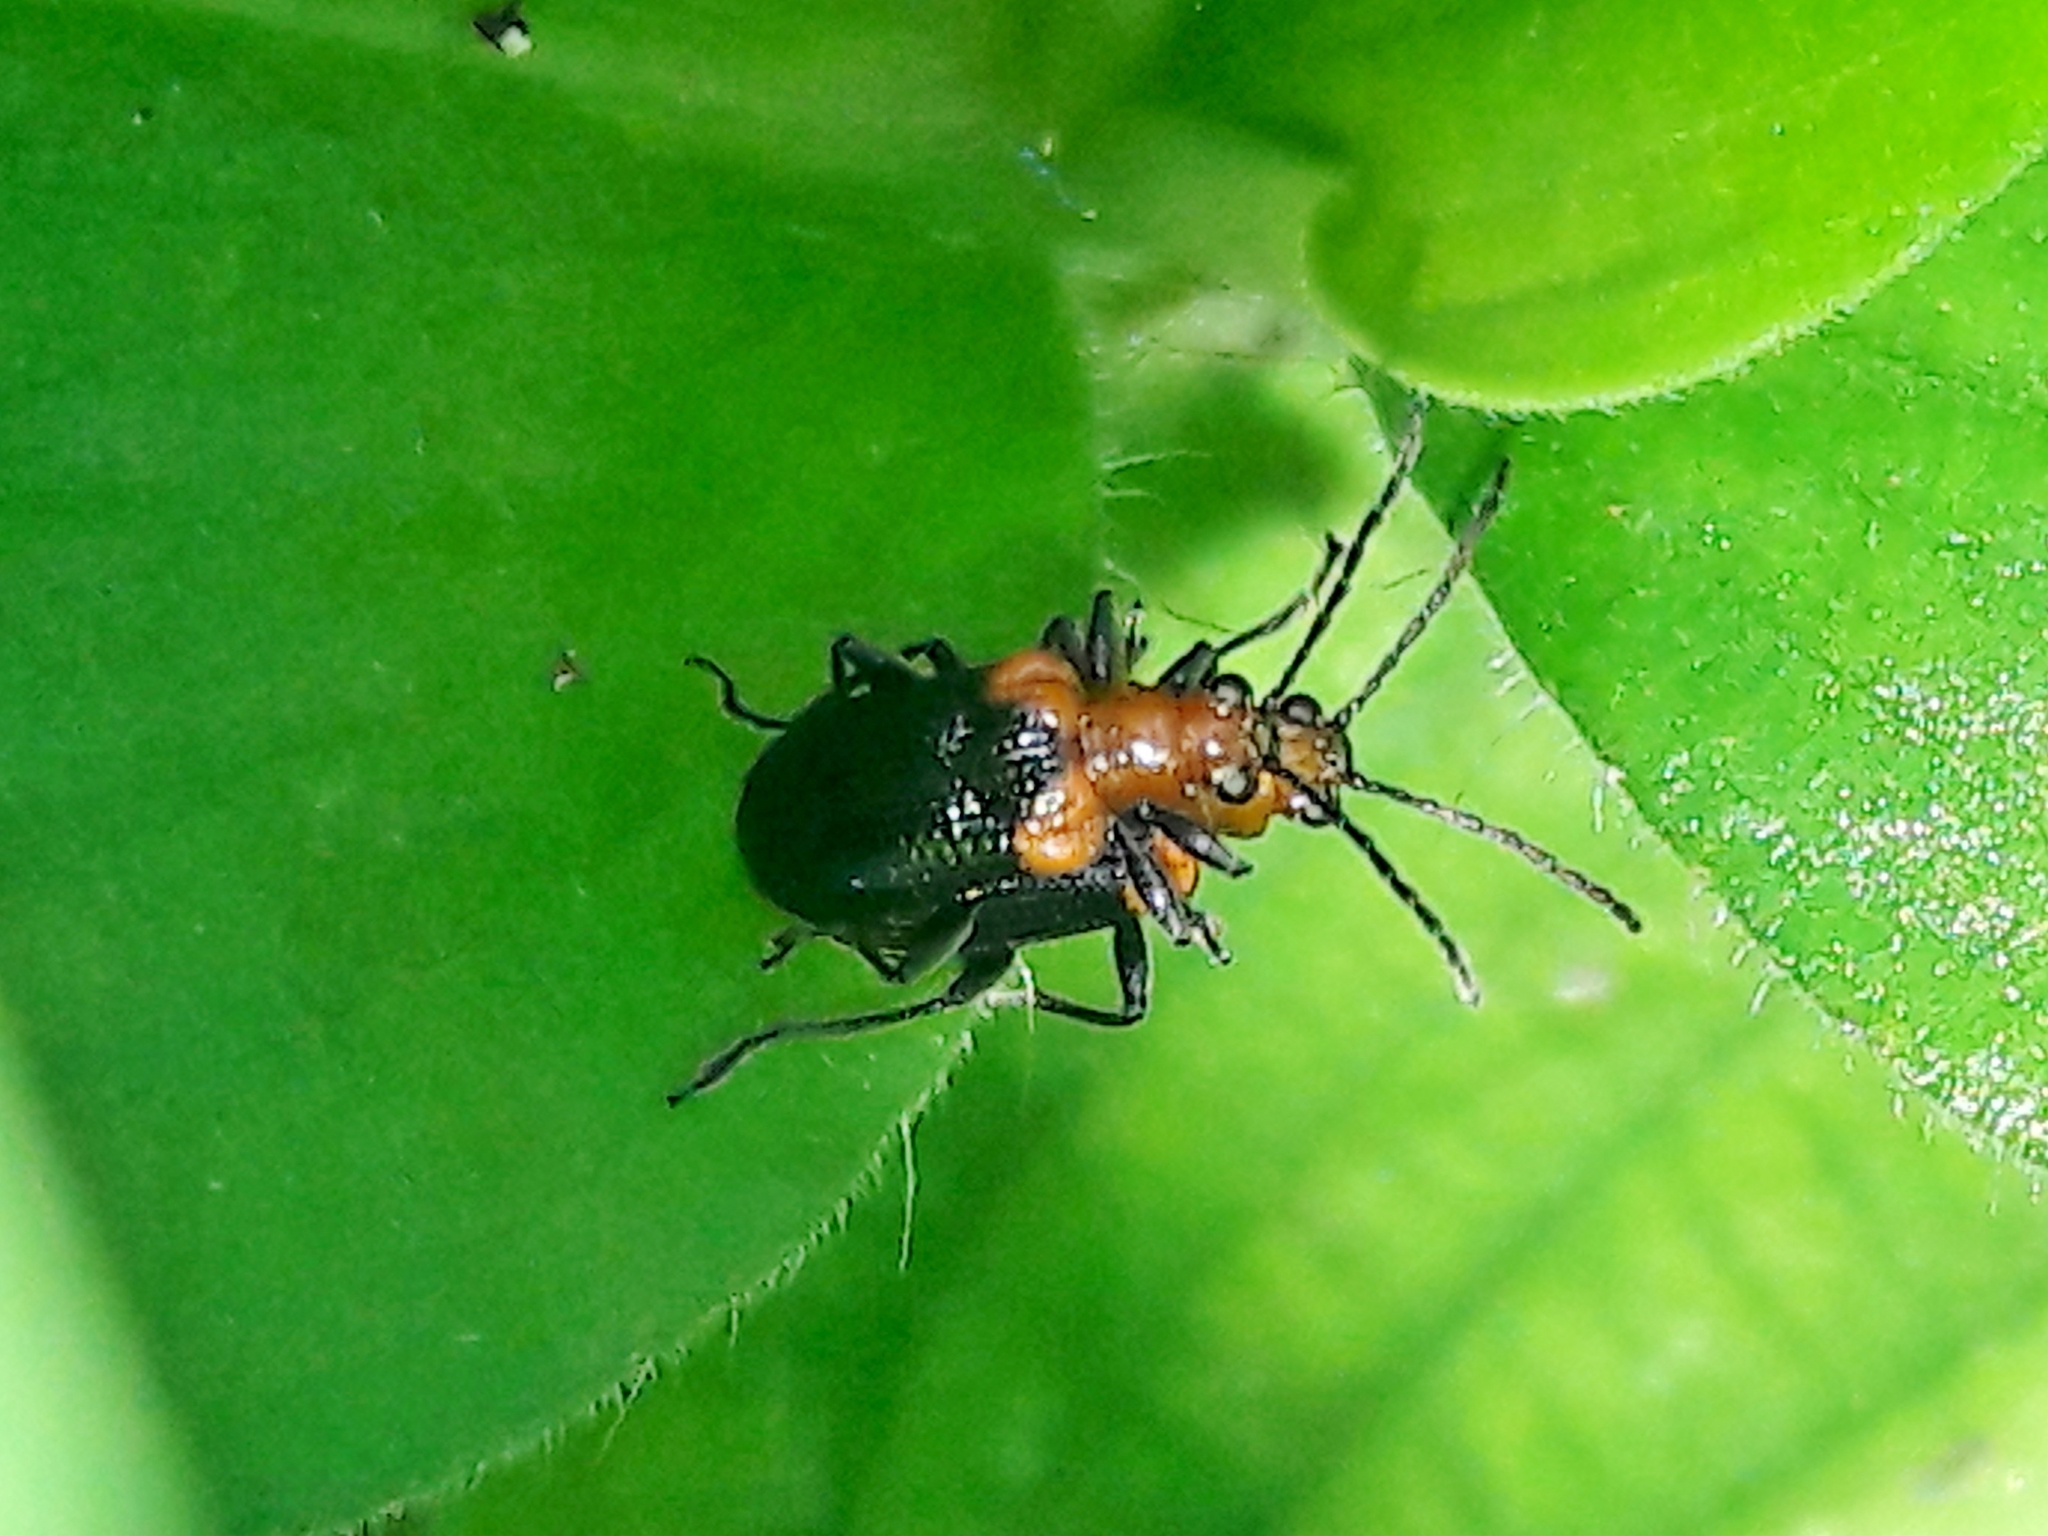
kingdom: Animalia
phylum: Arthropoda
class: Insecta
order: Coleoptera
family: Chrysomelidae
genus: Neolema
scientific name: Neolema
